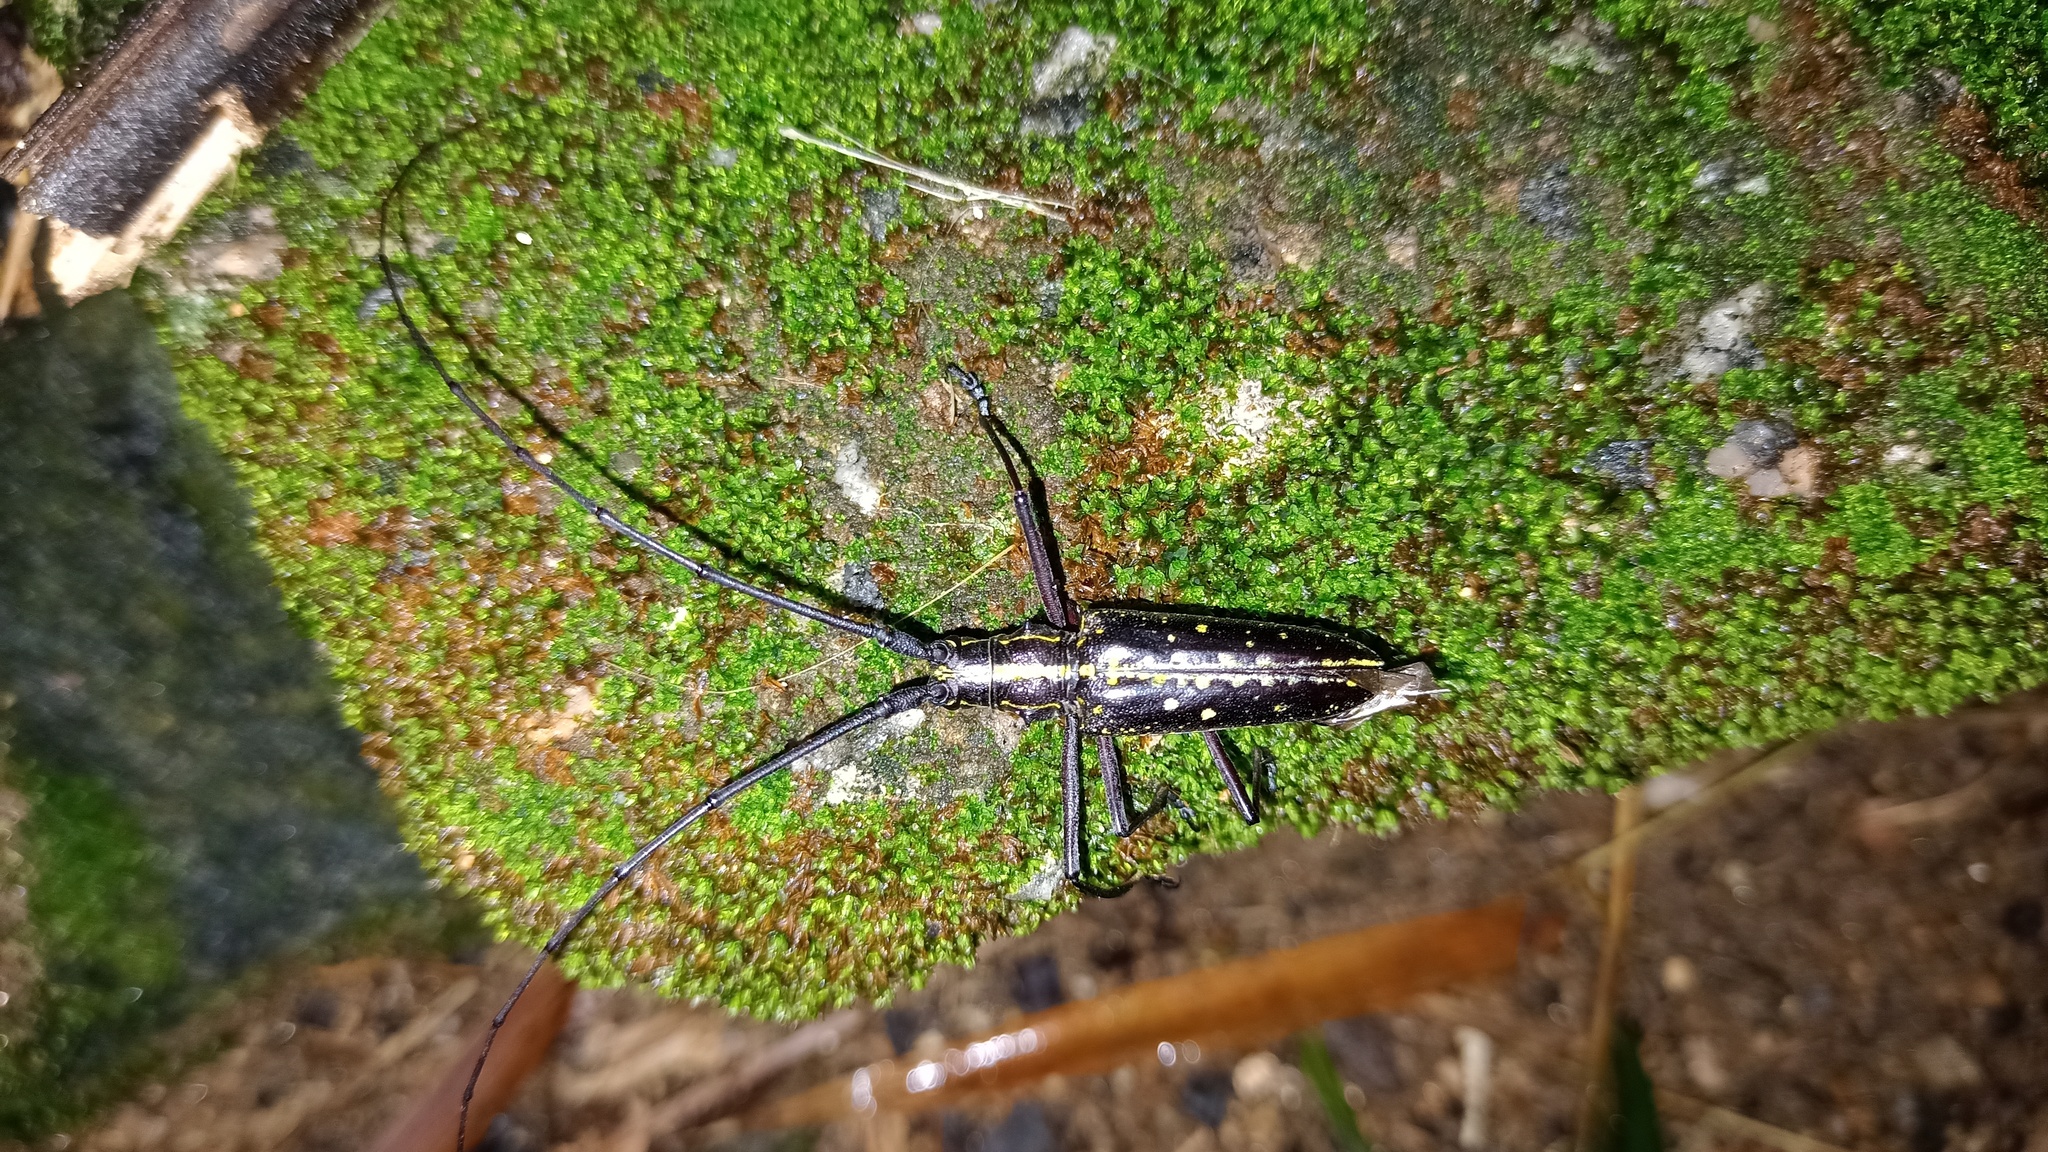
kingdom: Animalia
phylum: Arthropoda
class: Insecta
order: Coleoptera
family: Cerambycidae
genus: Taeniotes
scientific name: Taeniotes amazonum
